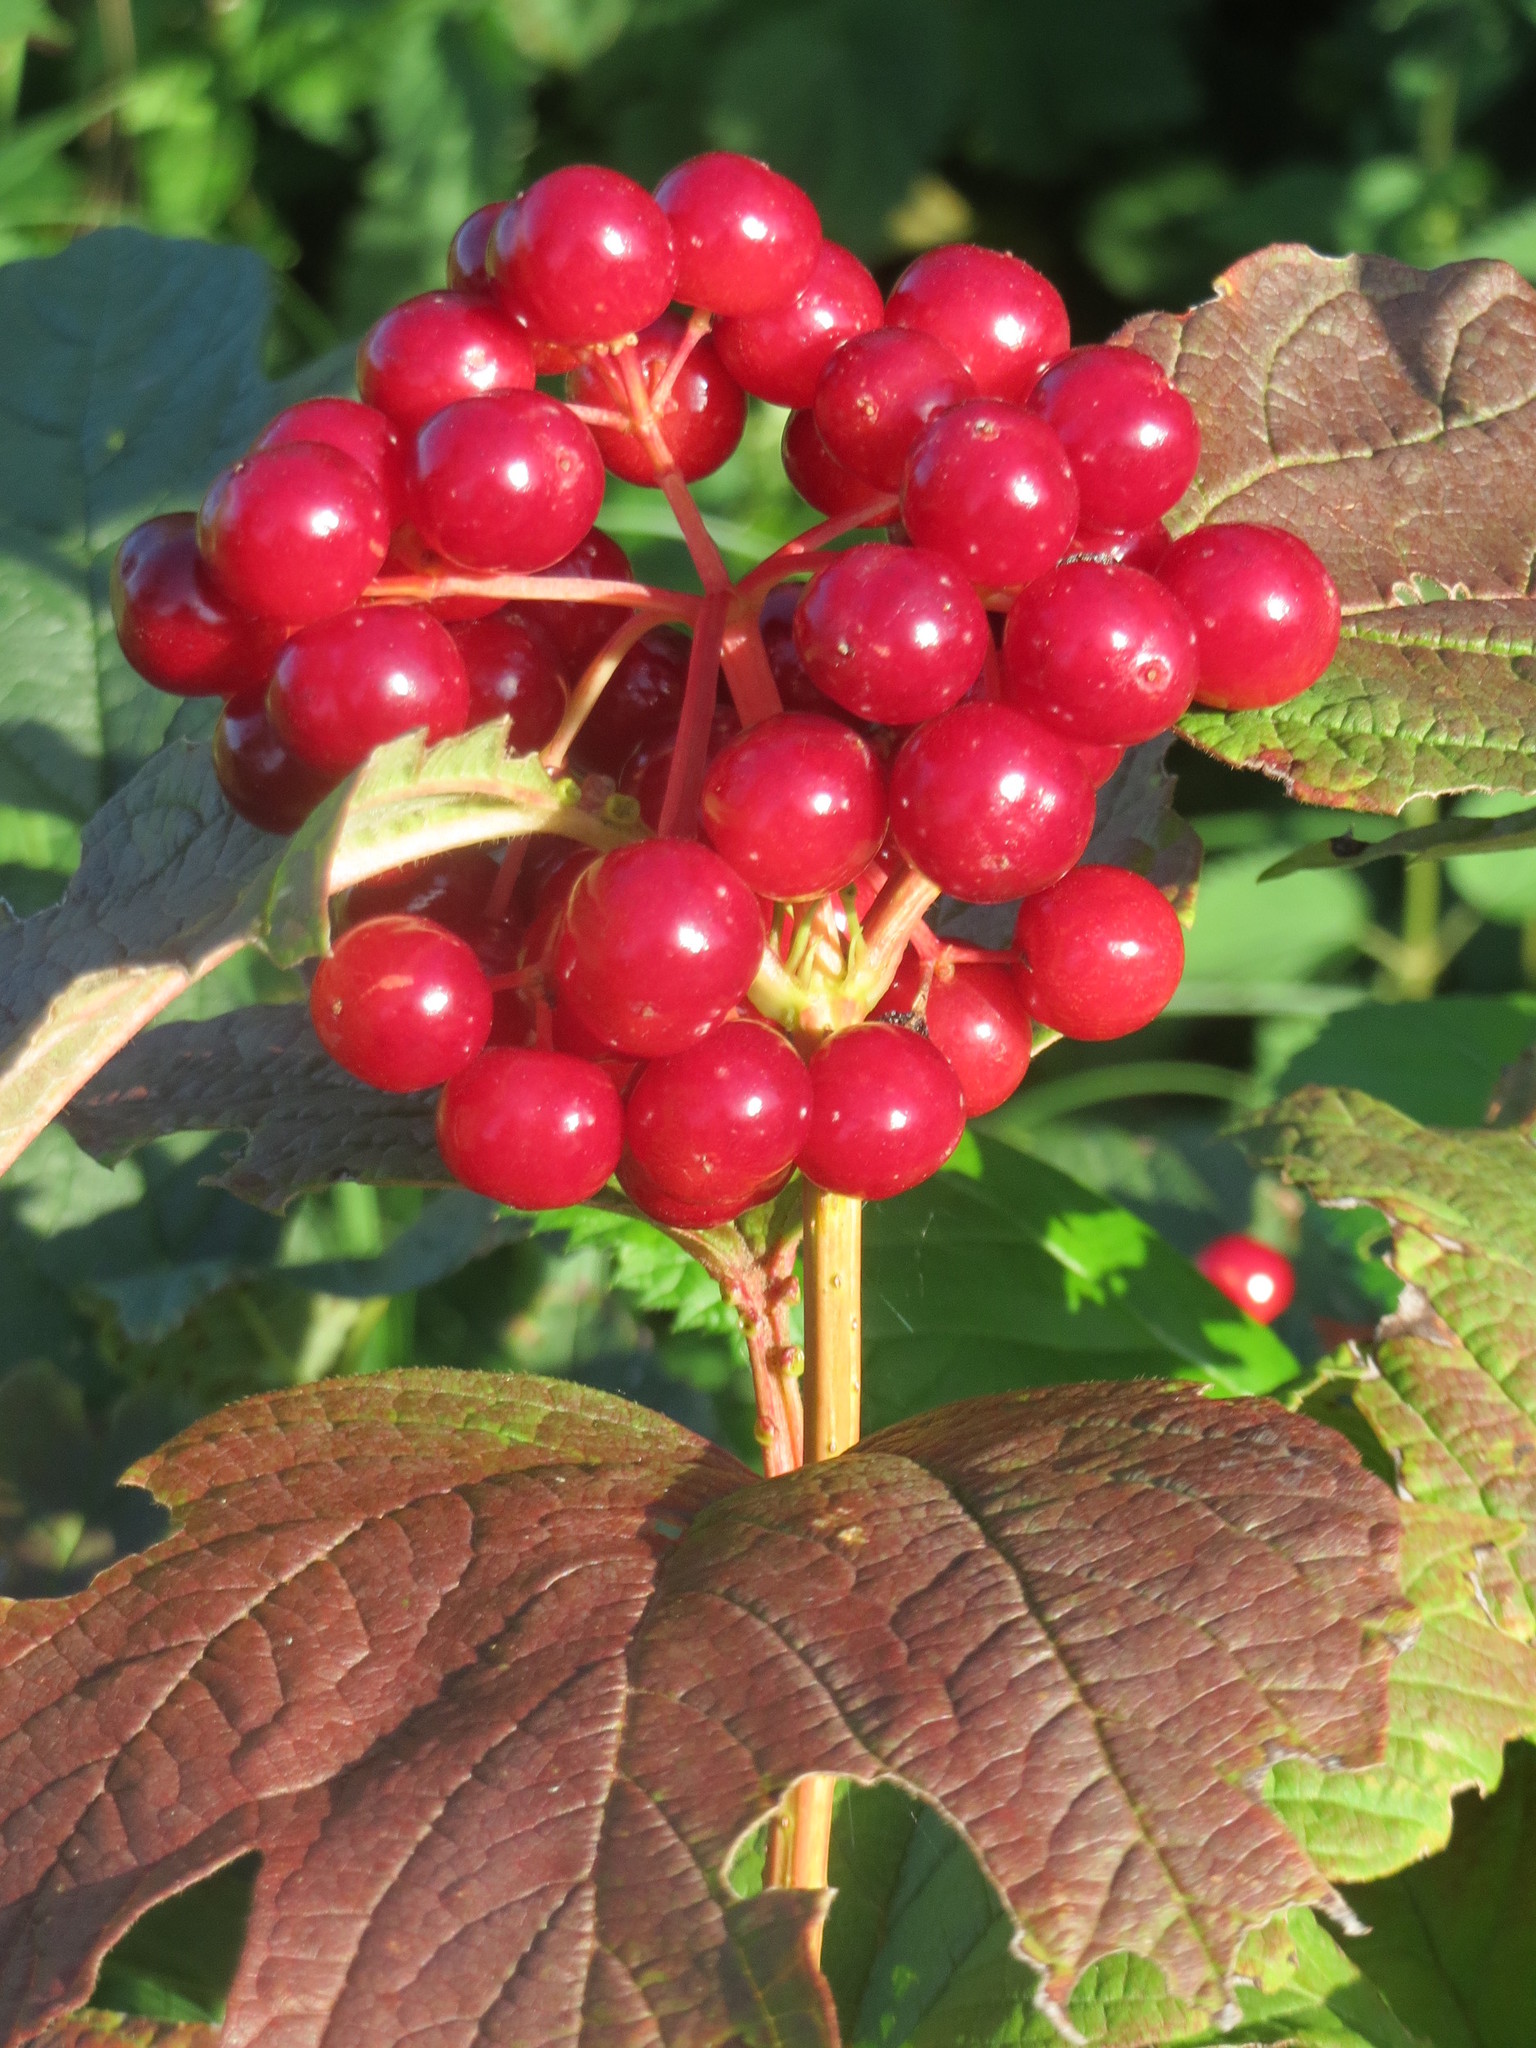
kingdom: Plantae
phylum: Tracheophyta
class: Magnoliopsida
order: Dipsacales
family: Viburnaceae
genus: Viburnum
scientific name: Viburnum opulus
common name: Guelder-rose
